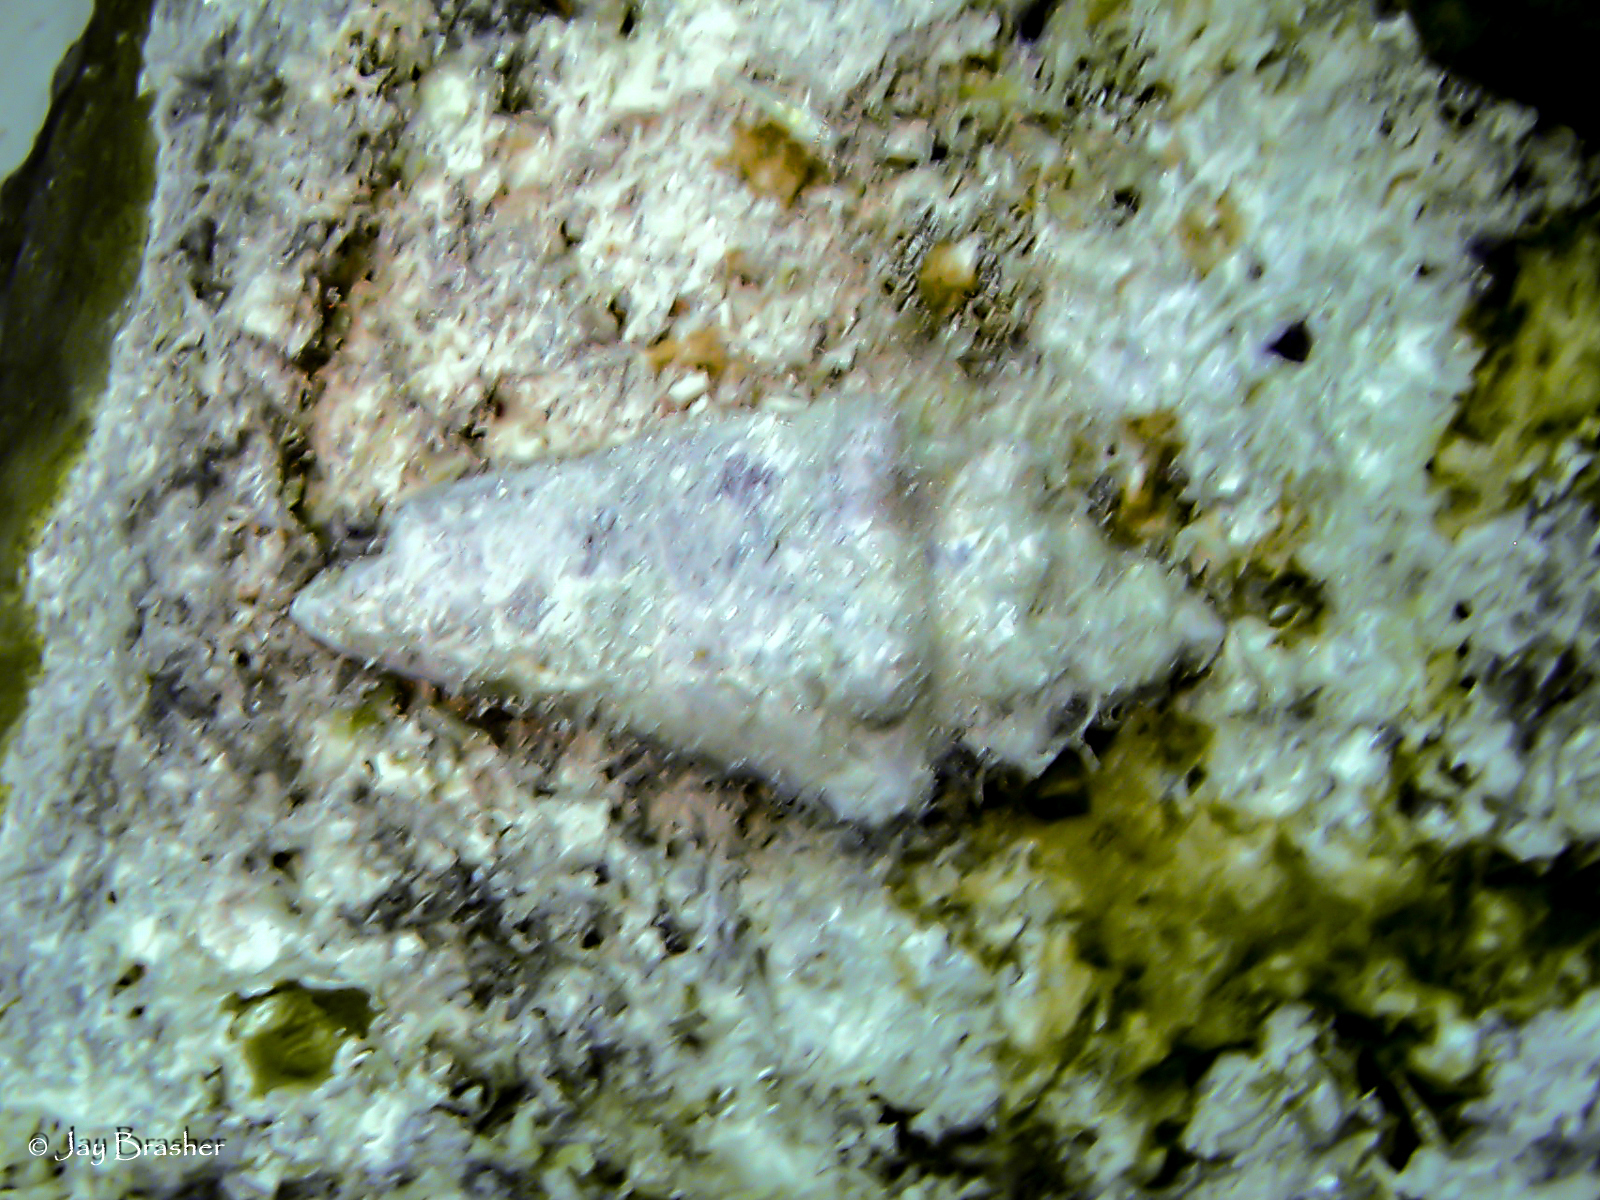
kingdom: Animalia
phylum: Mollusca
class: Gastropoda
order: Littorinimorpha
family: Strombidae
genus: Aliger
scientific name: Aliger gigas
